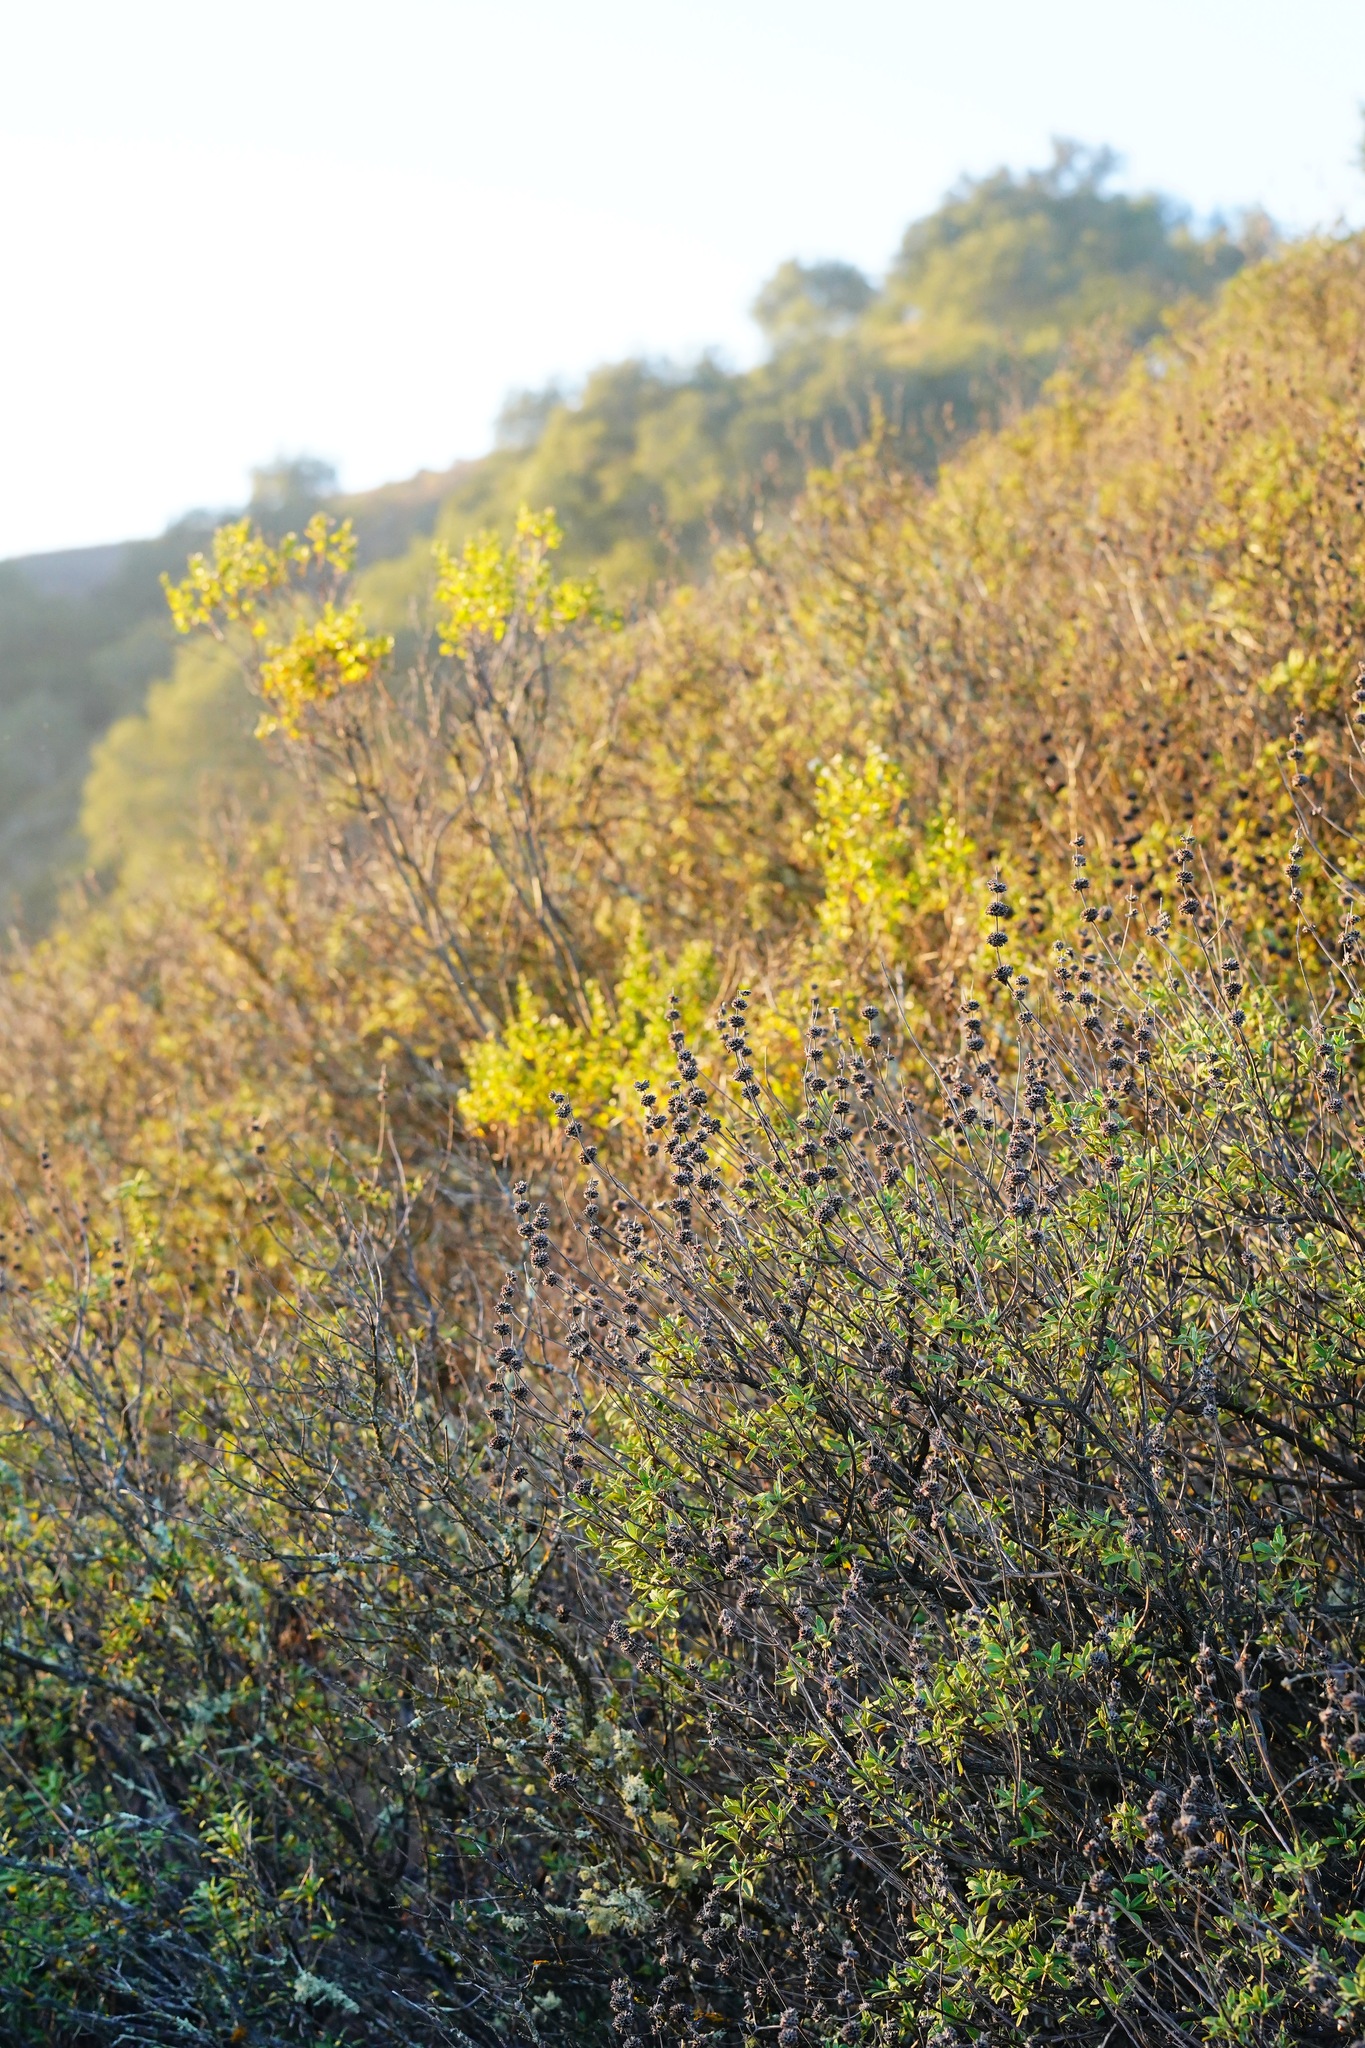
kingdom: Plantae
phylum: Tracheophyta
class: Magnoliopsida
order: Lamiales
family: Lamiaceae
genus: Salvia
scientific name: Salvia mellifera
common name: Black sage
